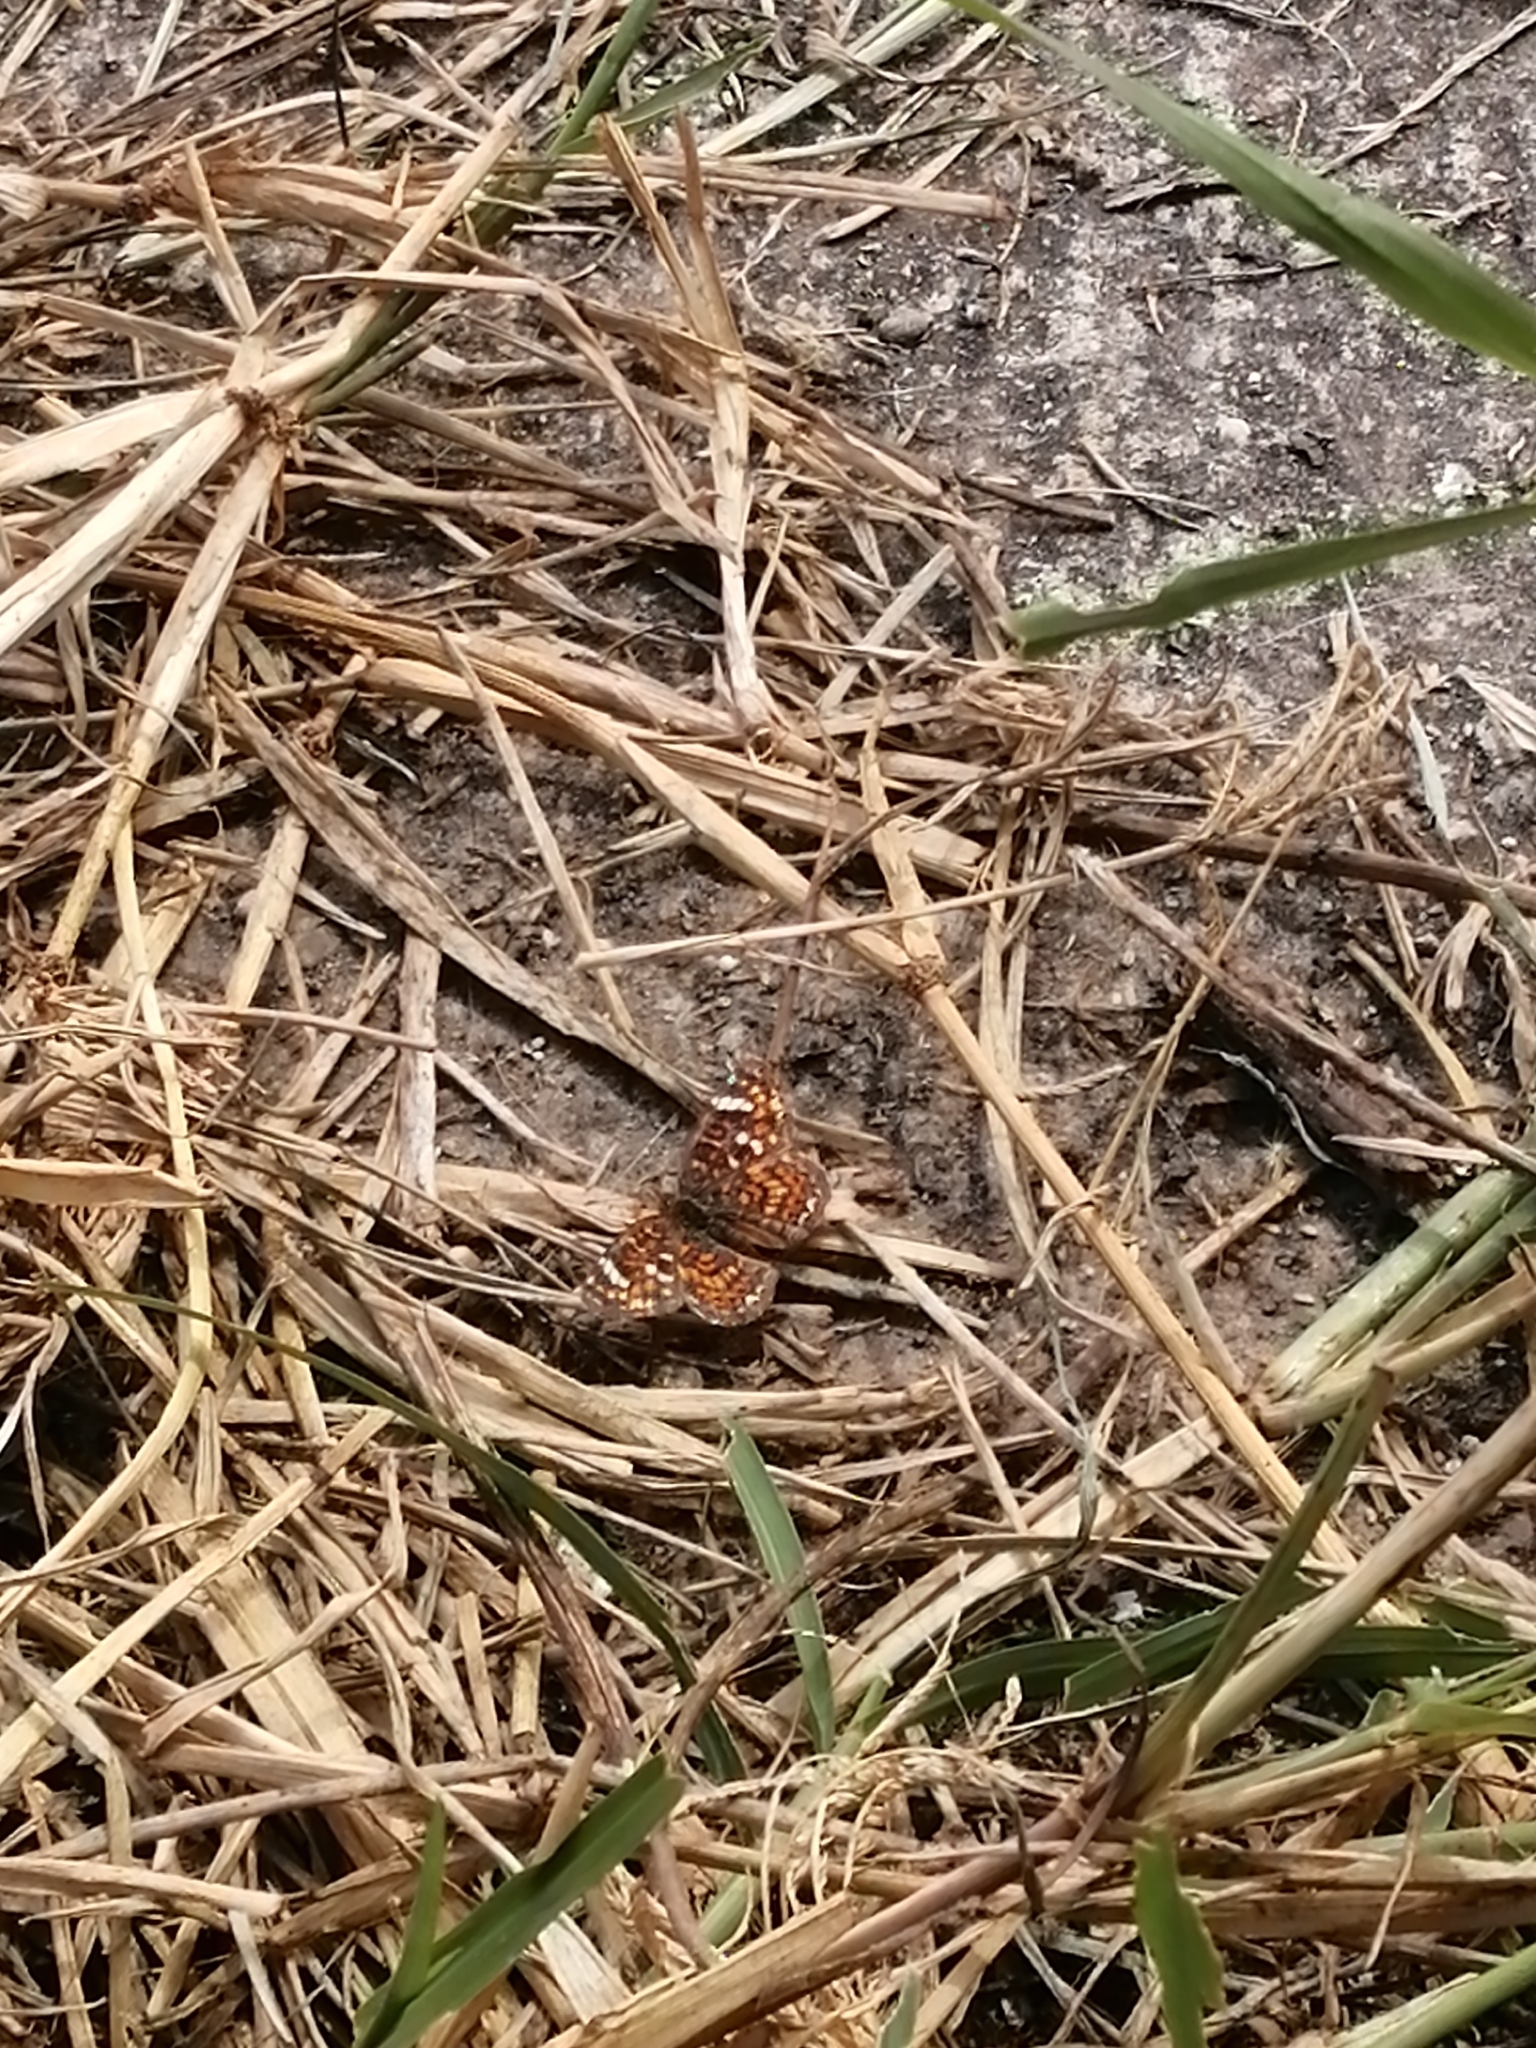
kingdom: Animalia
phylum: Arthropoda
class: Insecta
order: Lepidoptera
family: Nymphalidae
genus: Phyciodes
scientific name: Phyciodes picta
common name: Painted crescent
